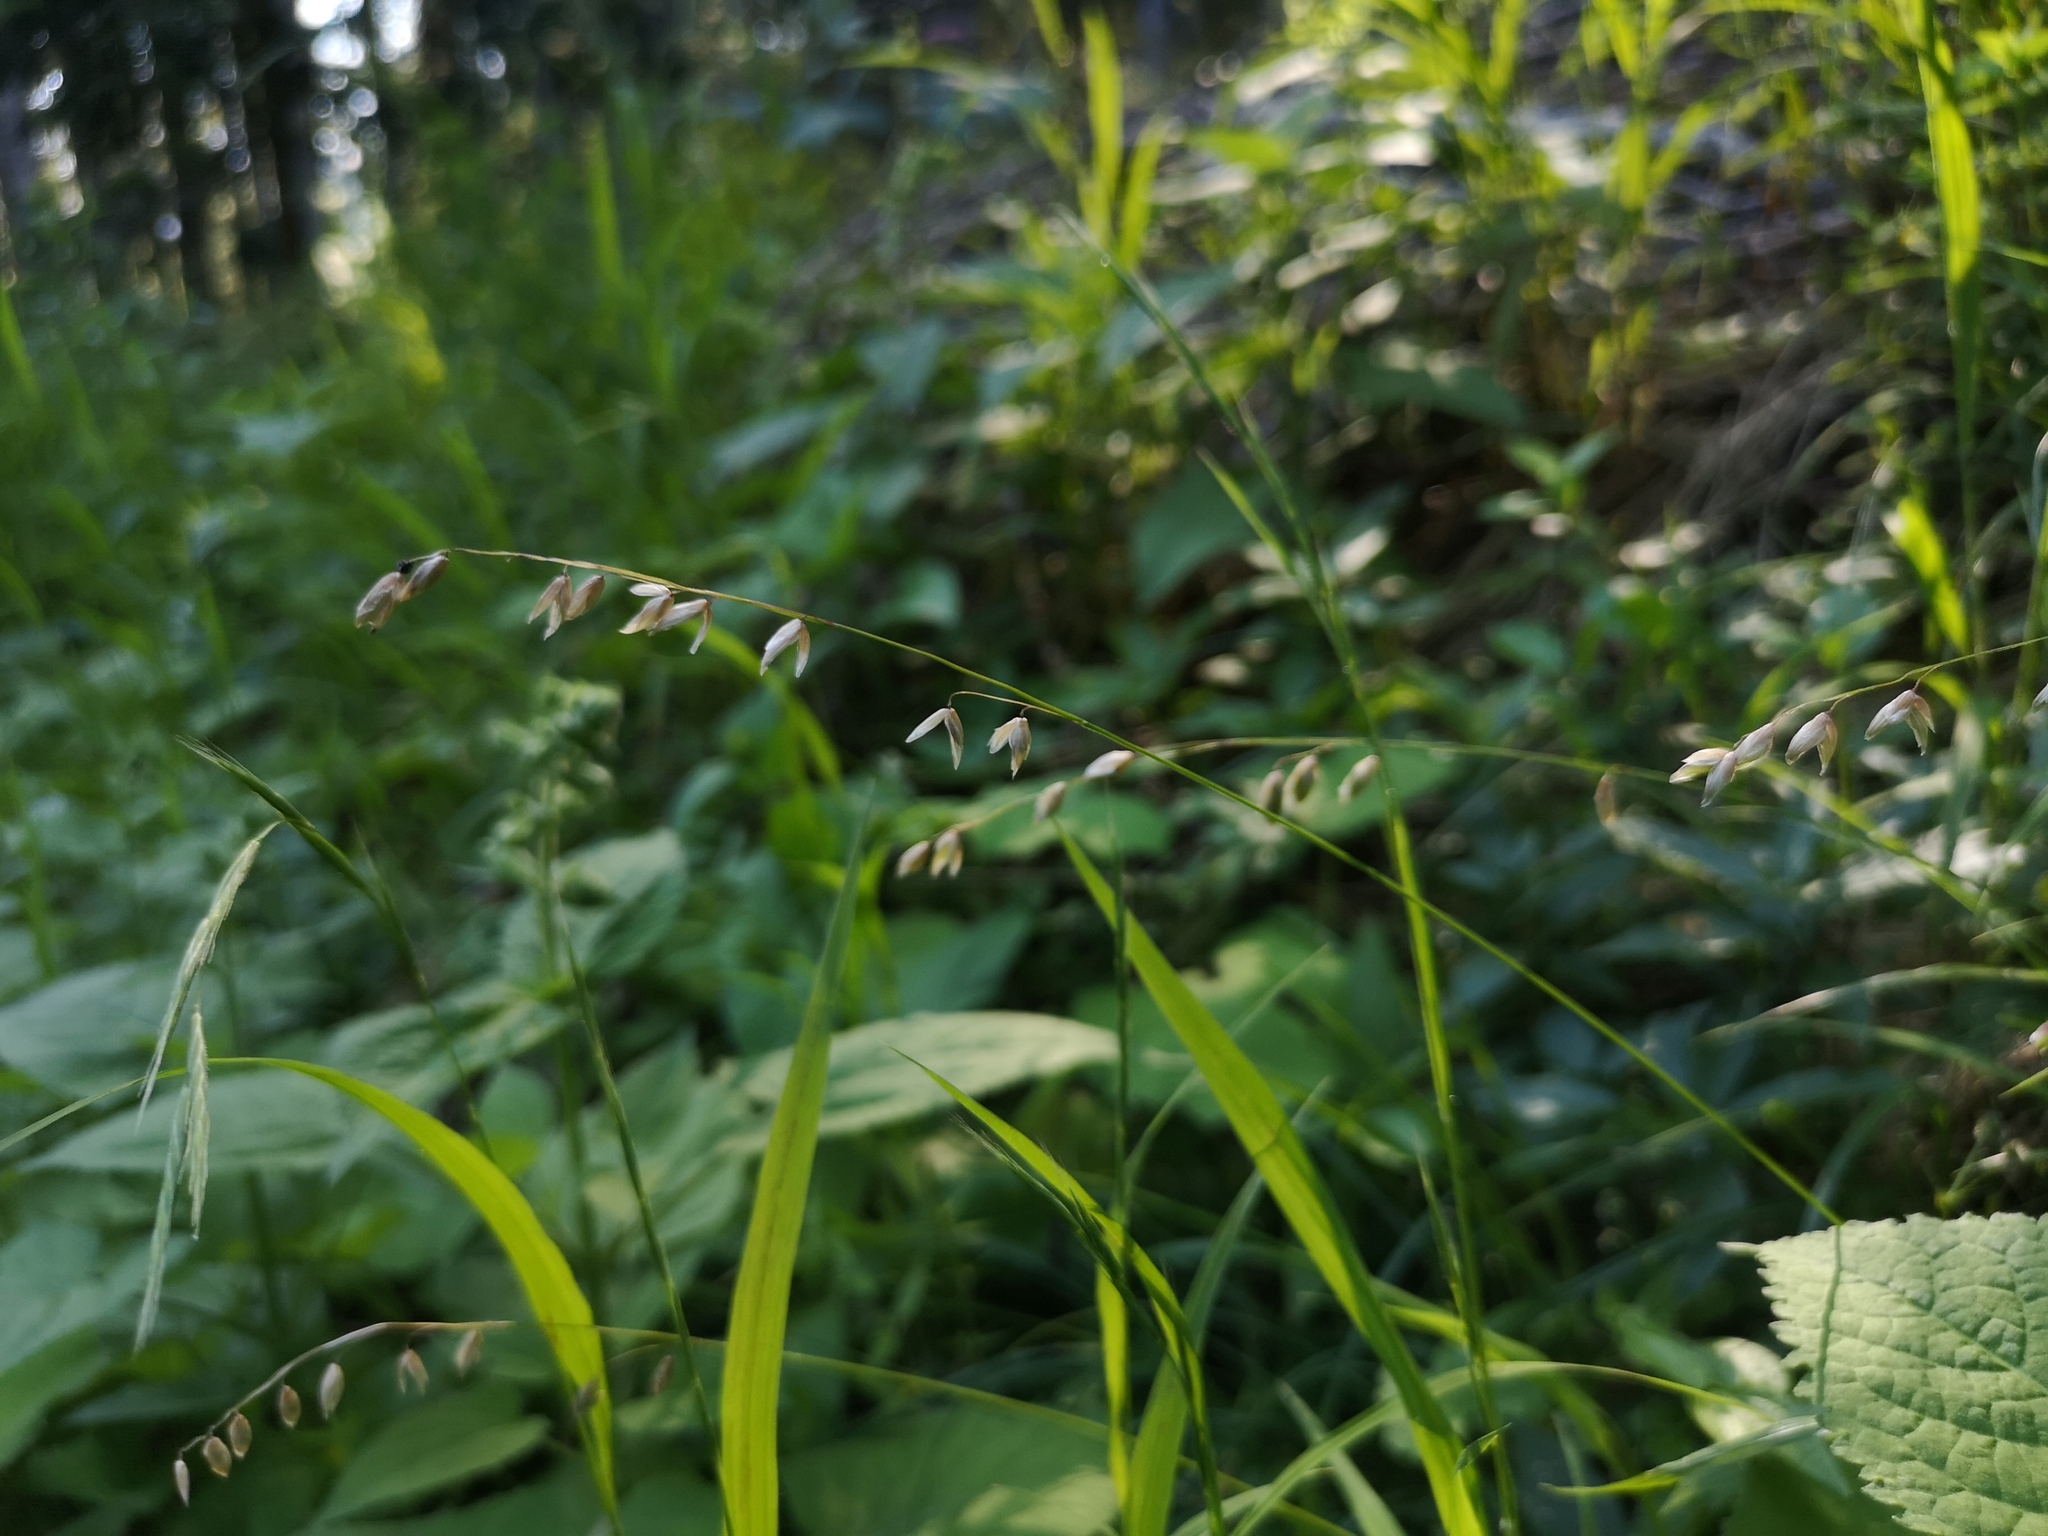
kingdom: Plantae
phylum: Tracheophyta
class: Liliopsida
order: Poales
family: Poaceae
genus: Melica
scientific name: Melica nutans
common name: Mountain melick
